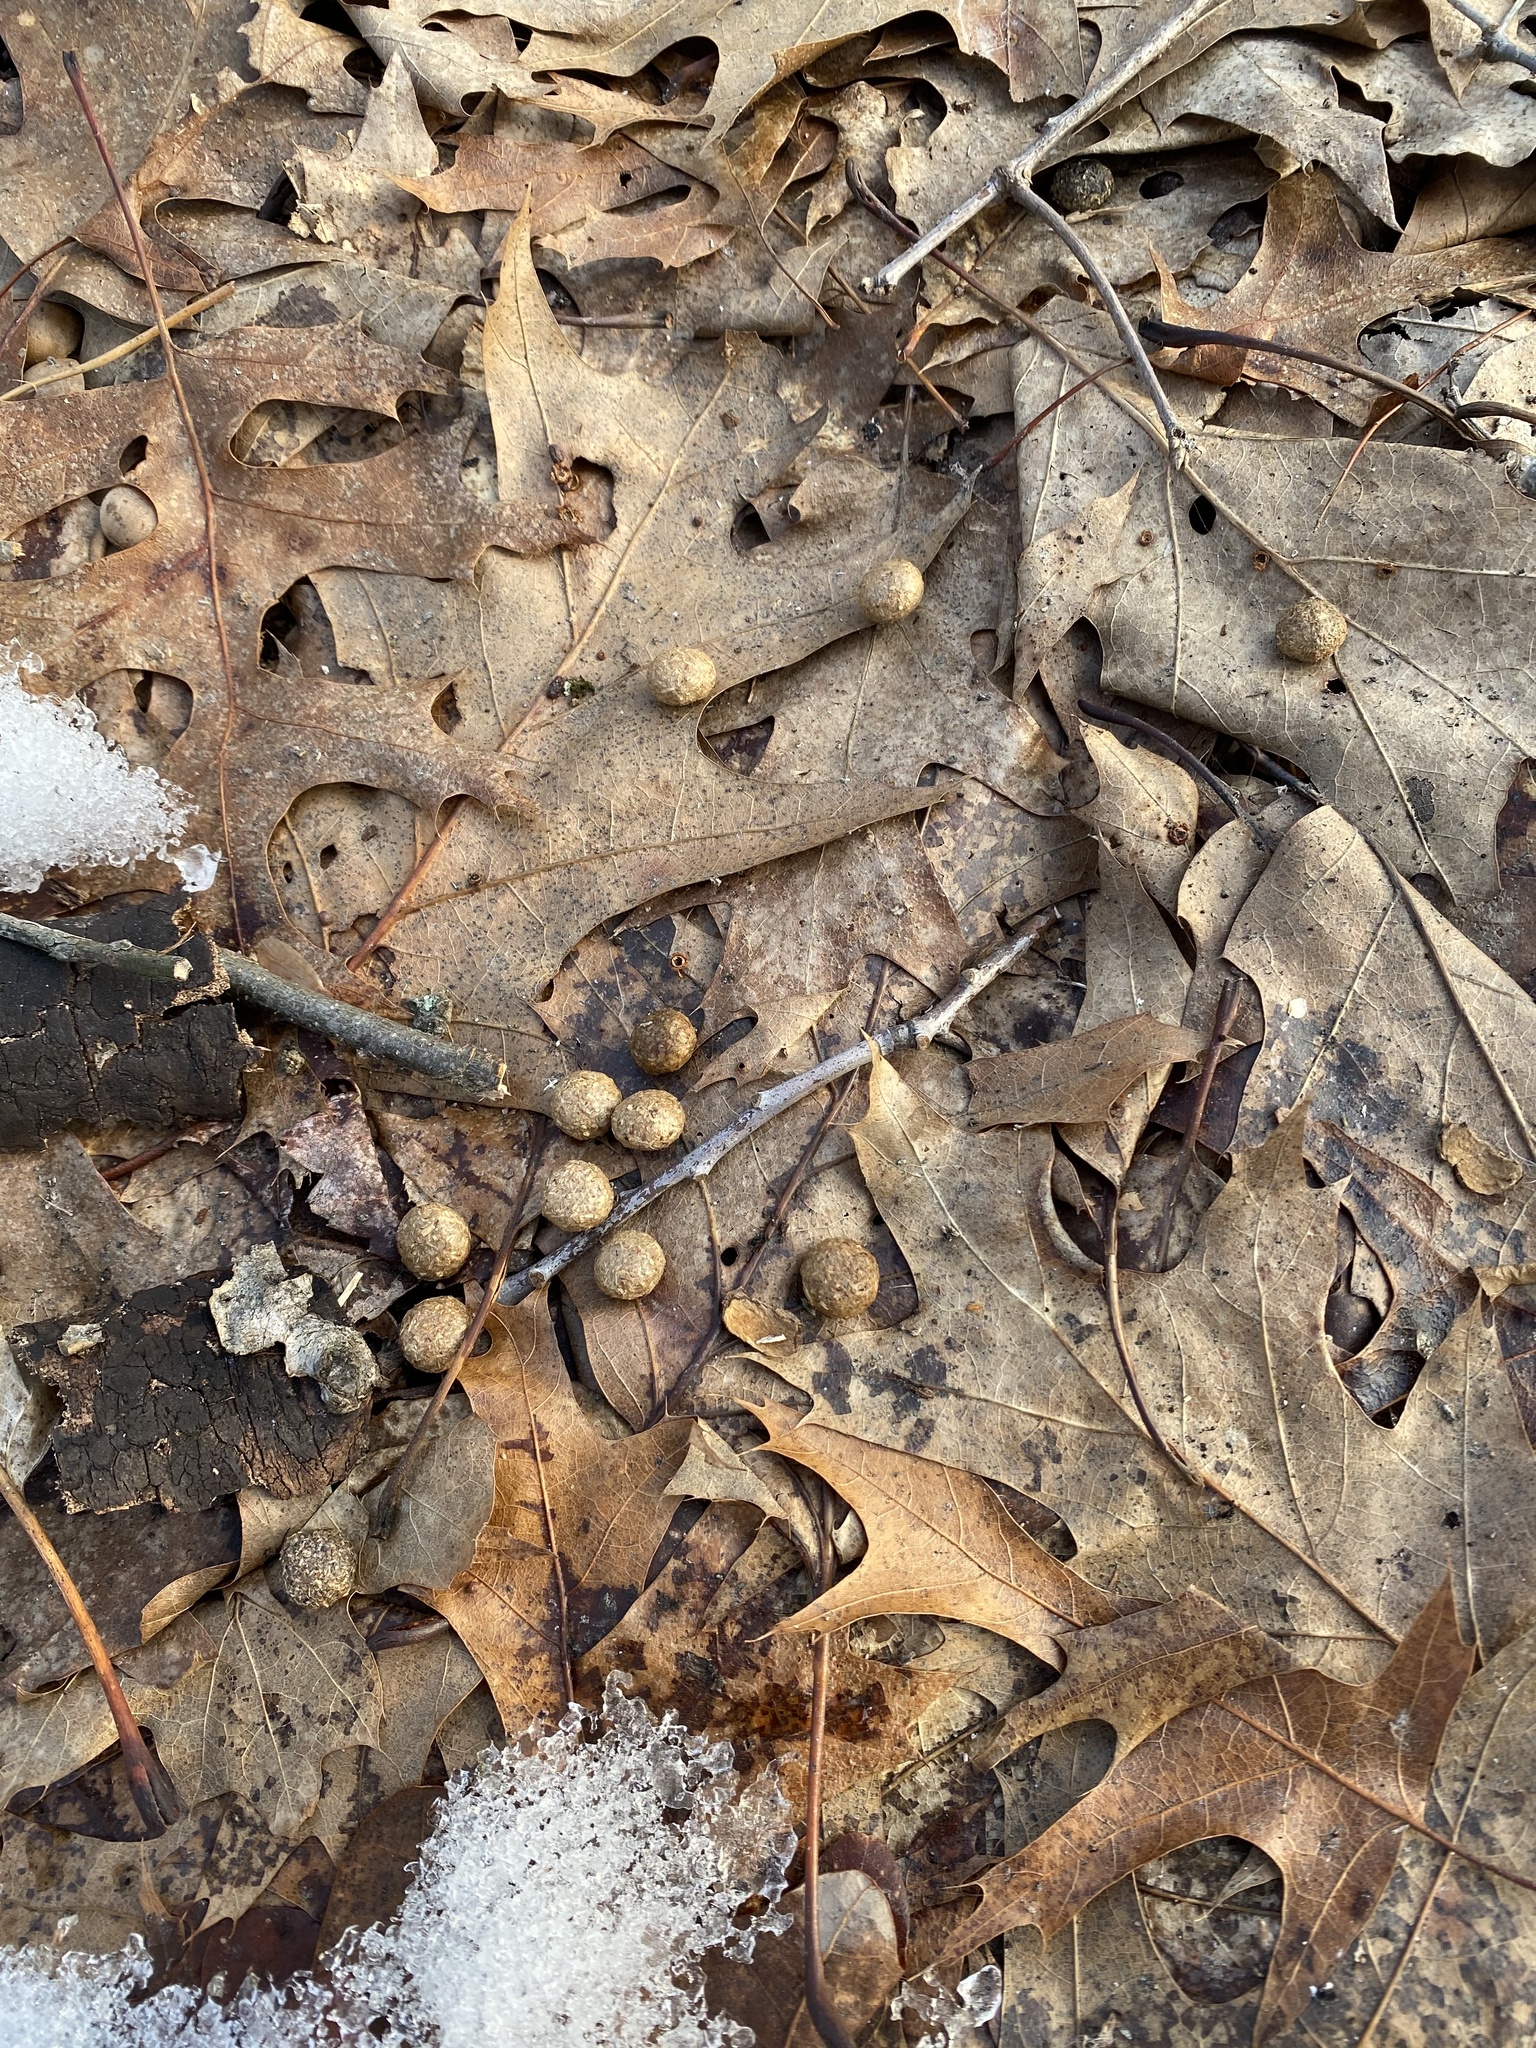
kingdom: Animalia
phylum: Chordata
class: Mammalia
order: Lagomorpha
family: Leporidae
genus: Sylvilagus
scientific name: Sylvilagus floridanus
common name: Eastern cottontail
